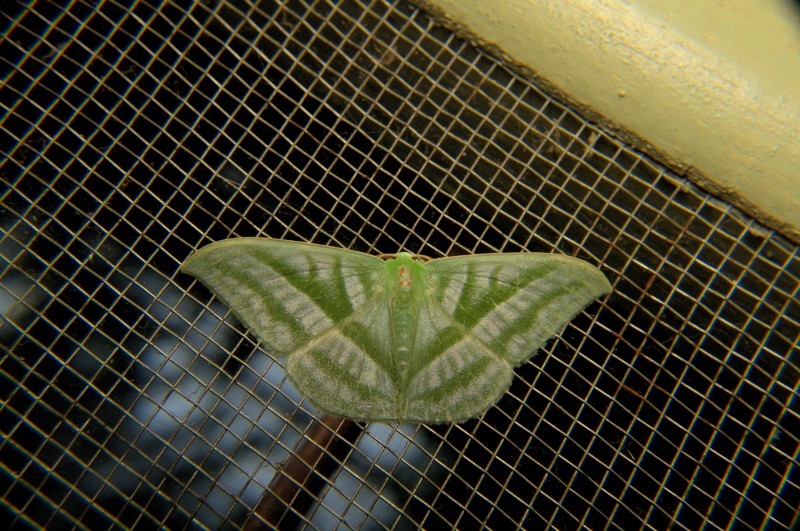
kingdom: Animalia
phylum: Arthropoda
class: Insecta
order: Lepidoptera
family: Geometridae
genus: Mixochlora
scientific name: Mixochlora vittata
